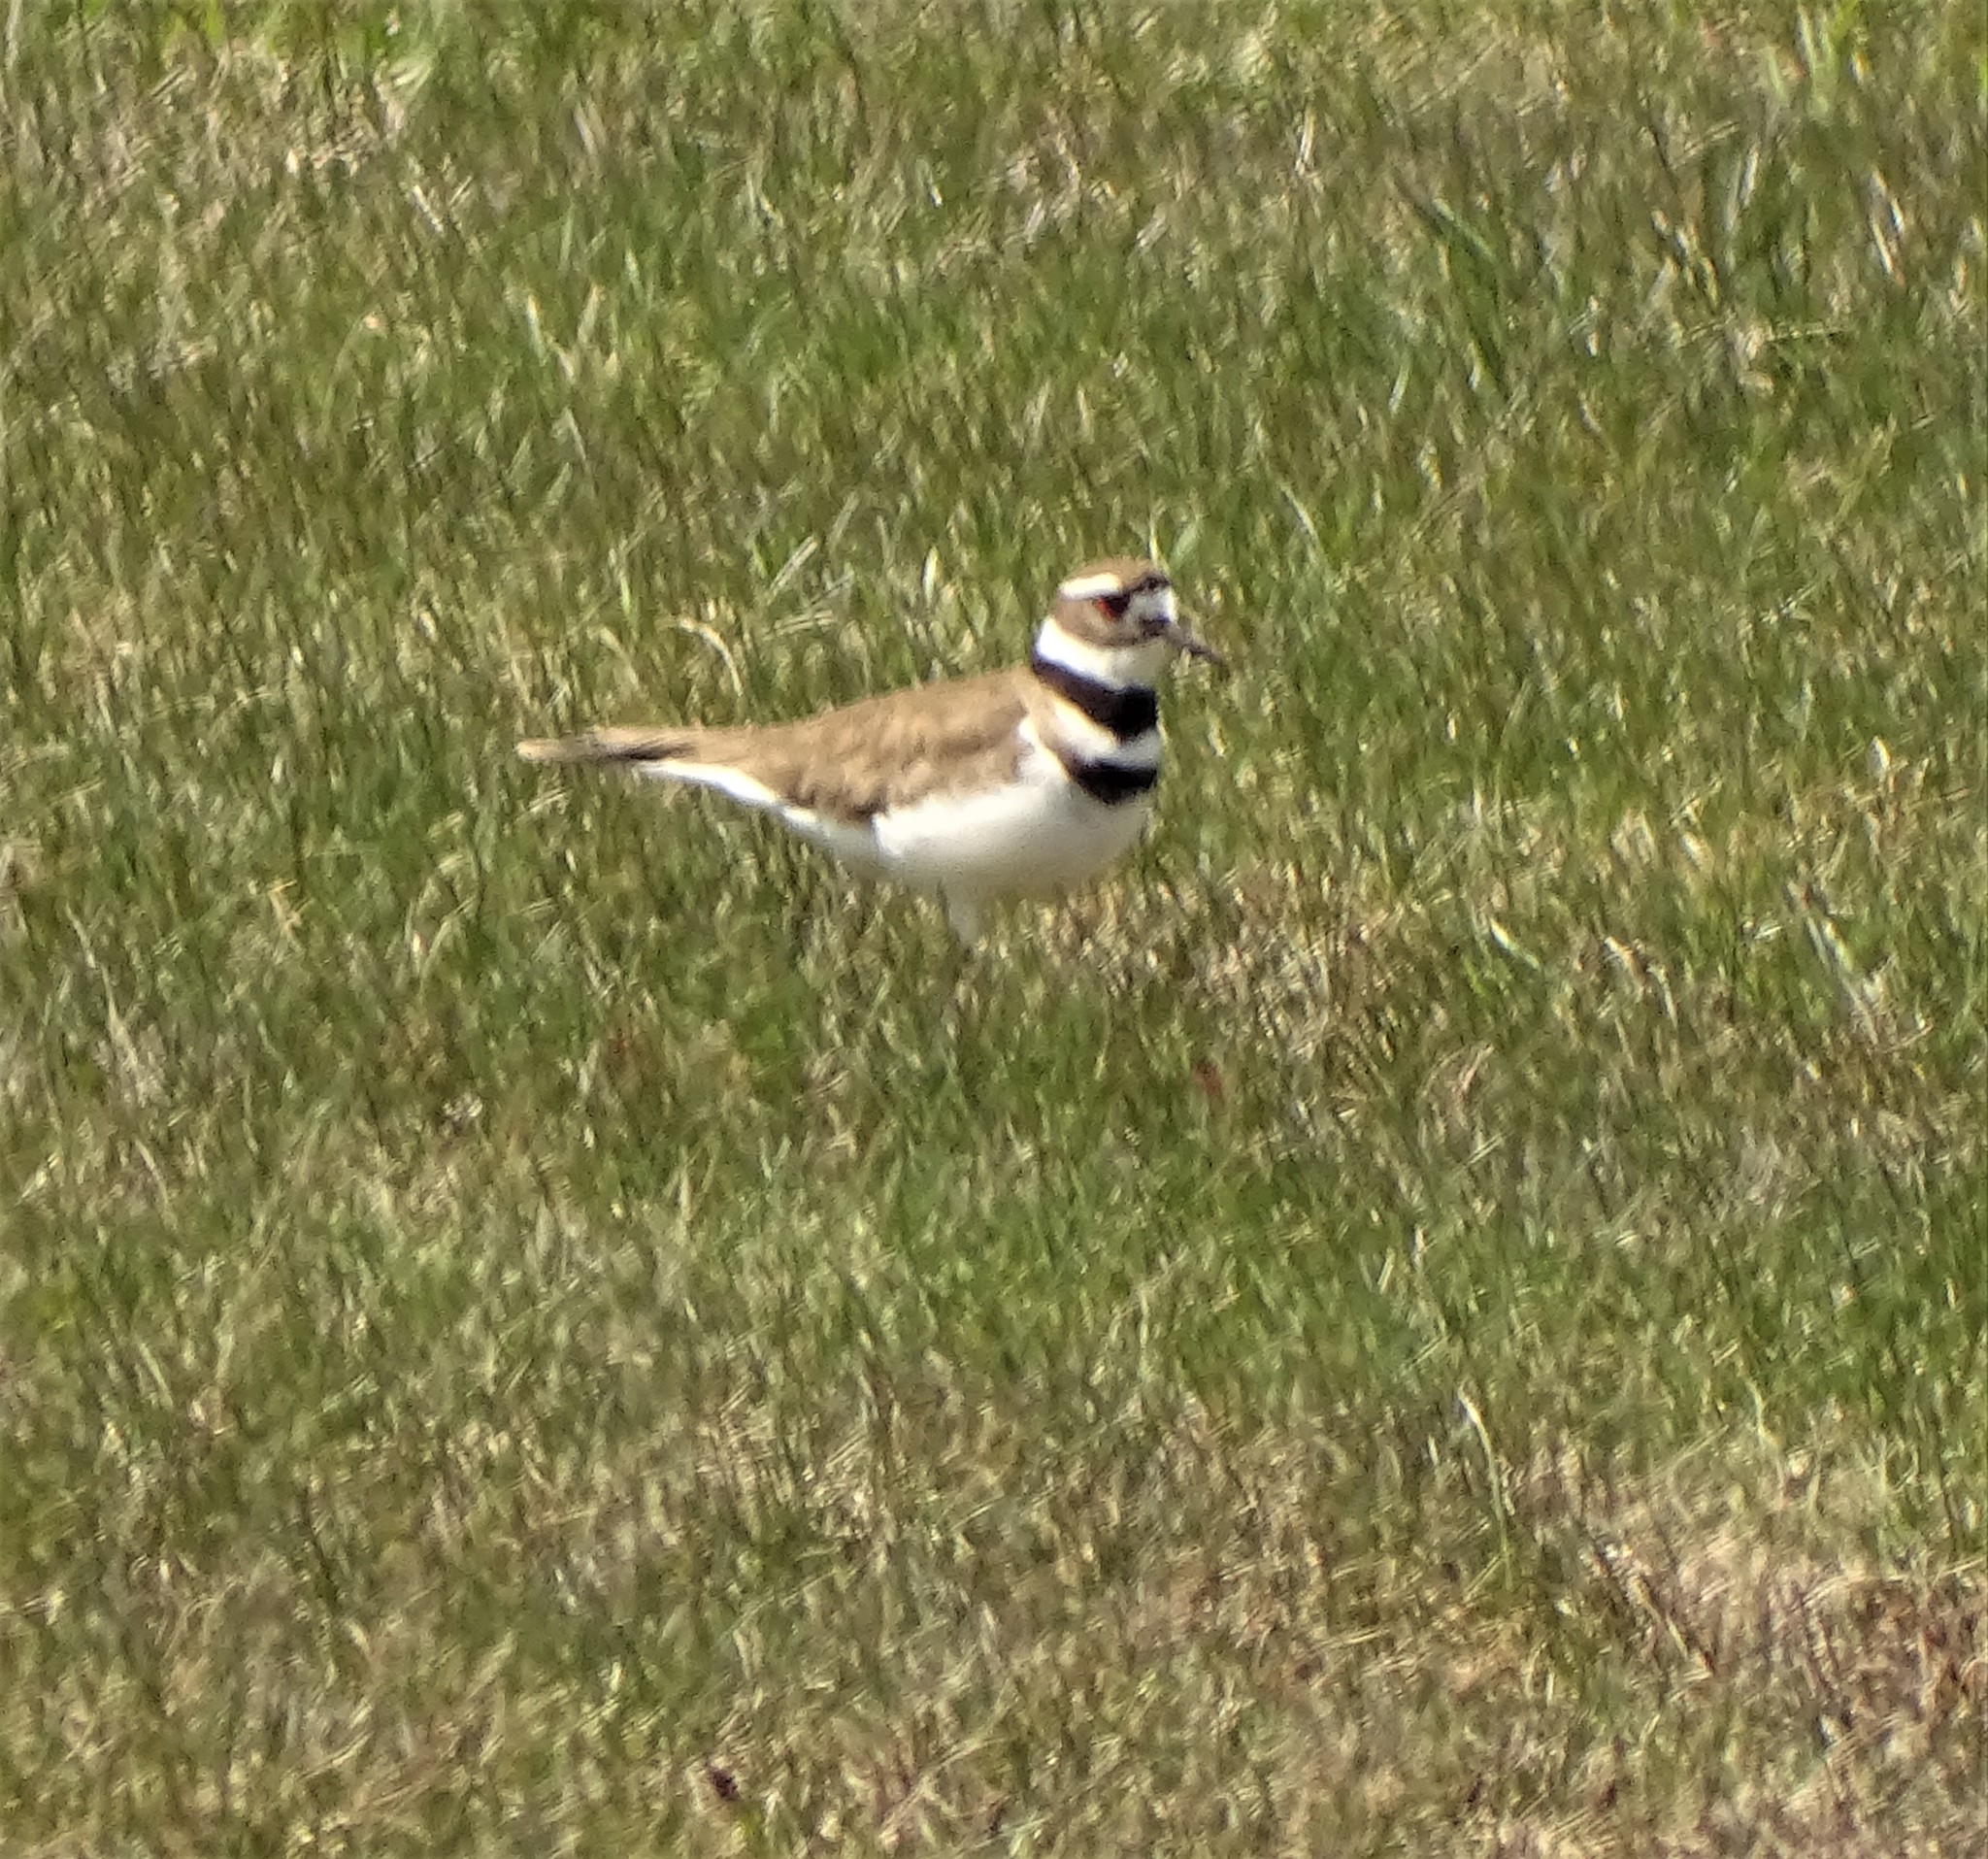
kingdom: Animalia
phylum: Chordata
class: Aves
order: Charadriiformes
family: Charadriidae
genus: Charadrius
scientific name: Charadrius vociferus
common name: Killdeer
